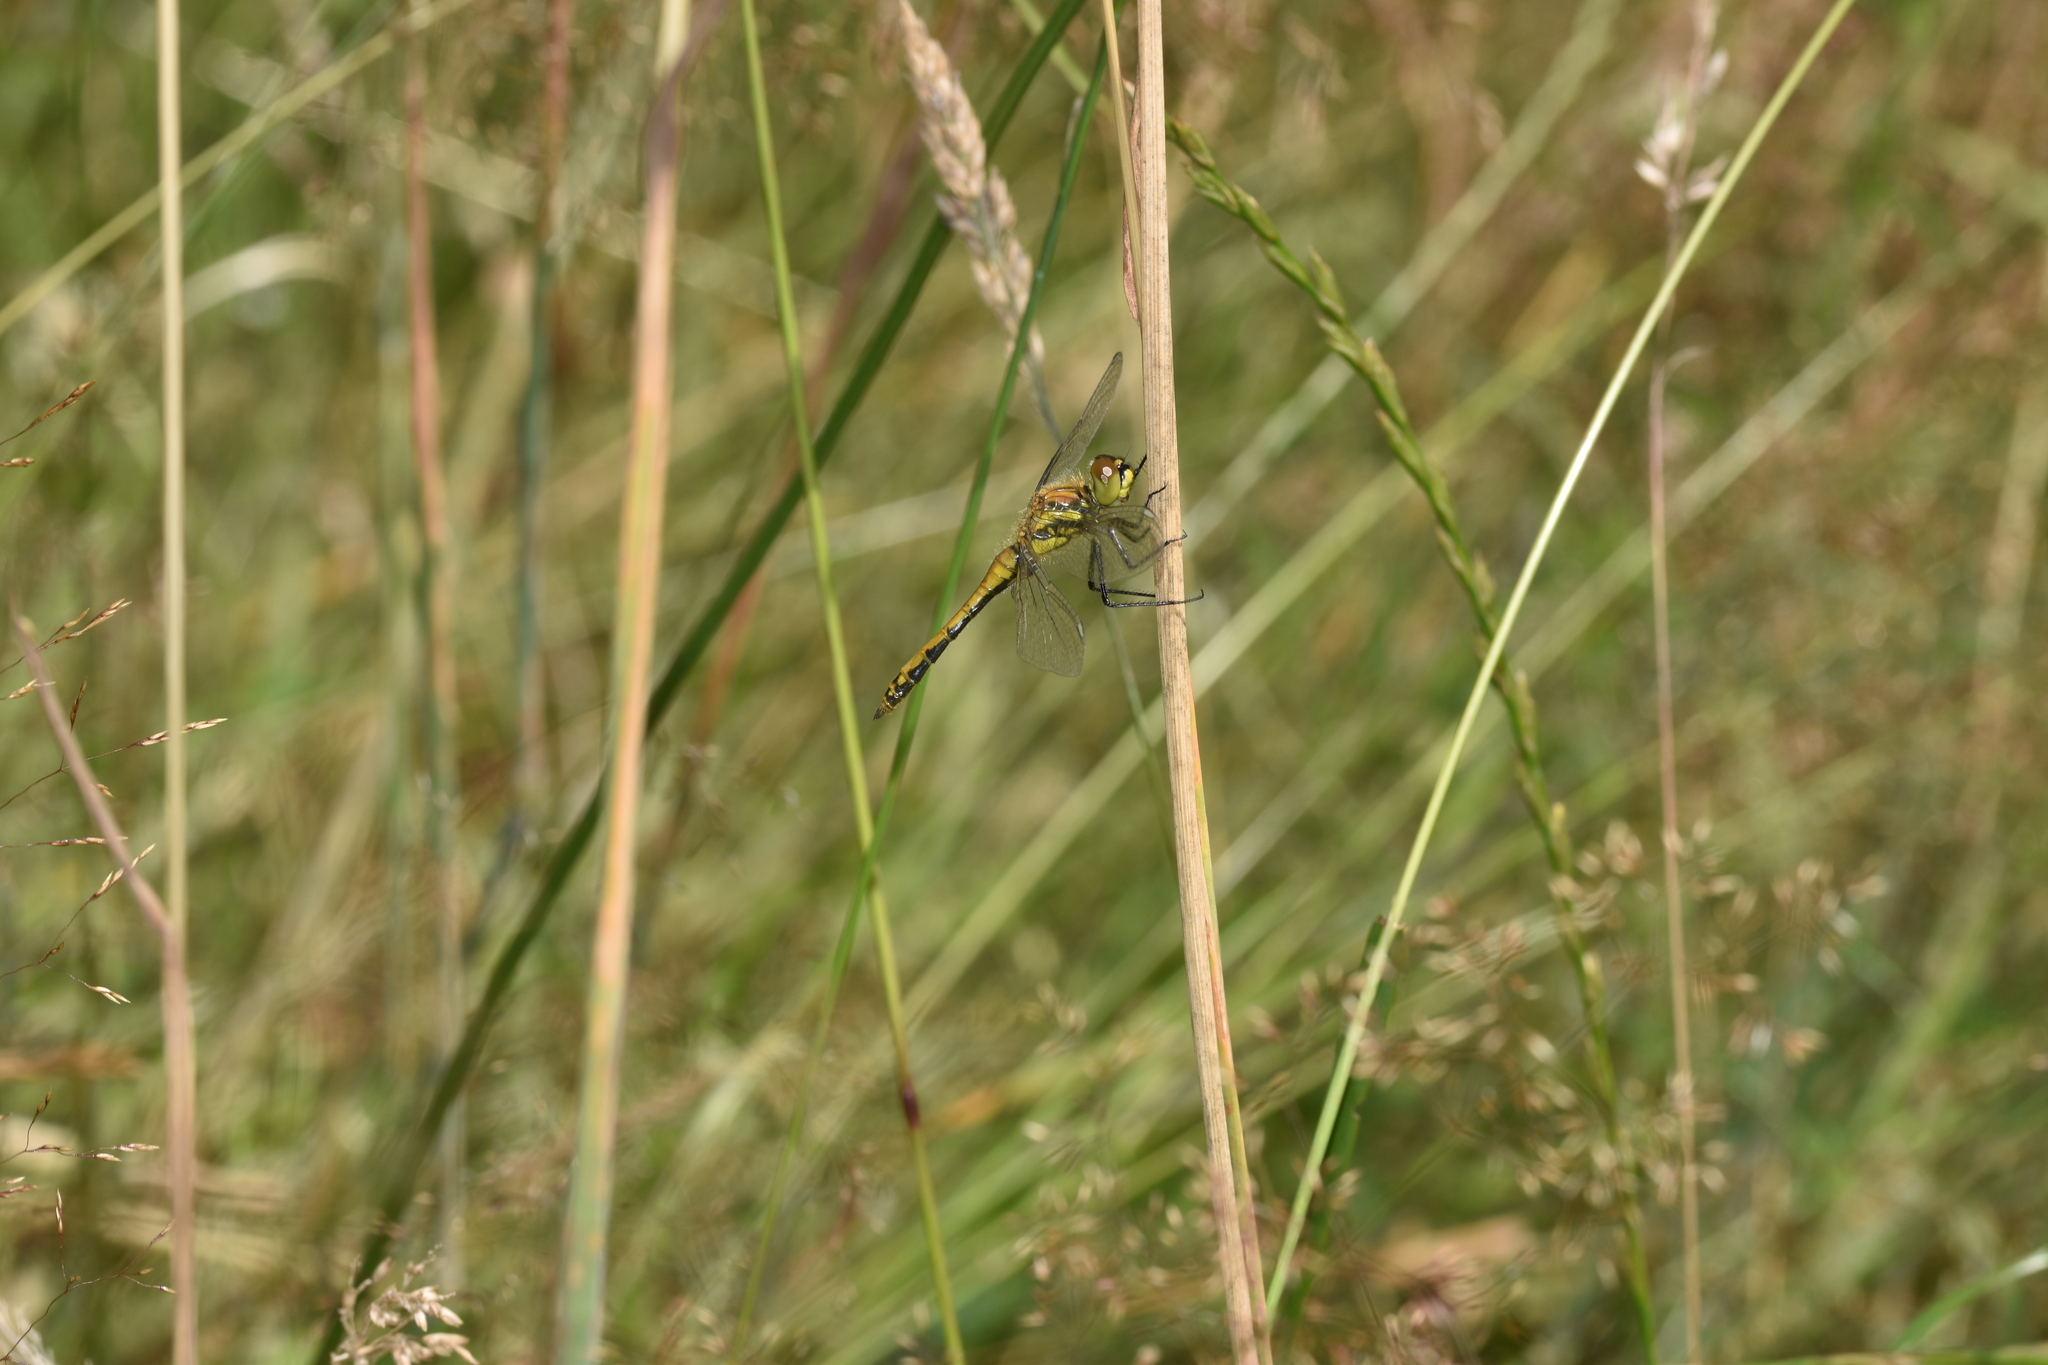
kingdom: Animalia
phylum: Arthropoda
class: Insecta
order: Odonata
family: Libellulidae
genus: Sympetrum
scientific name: Sympetrum danae
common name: Black darter
